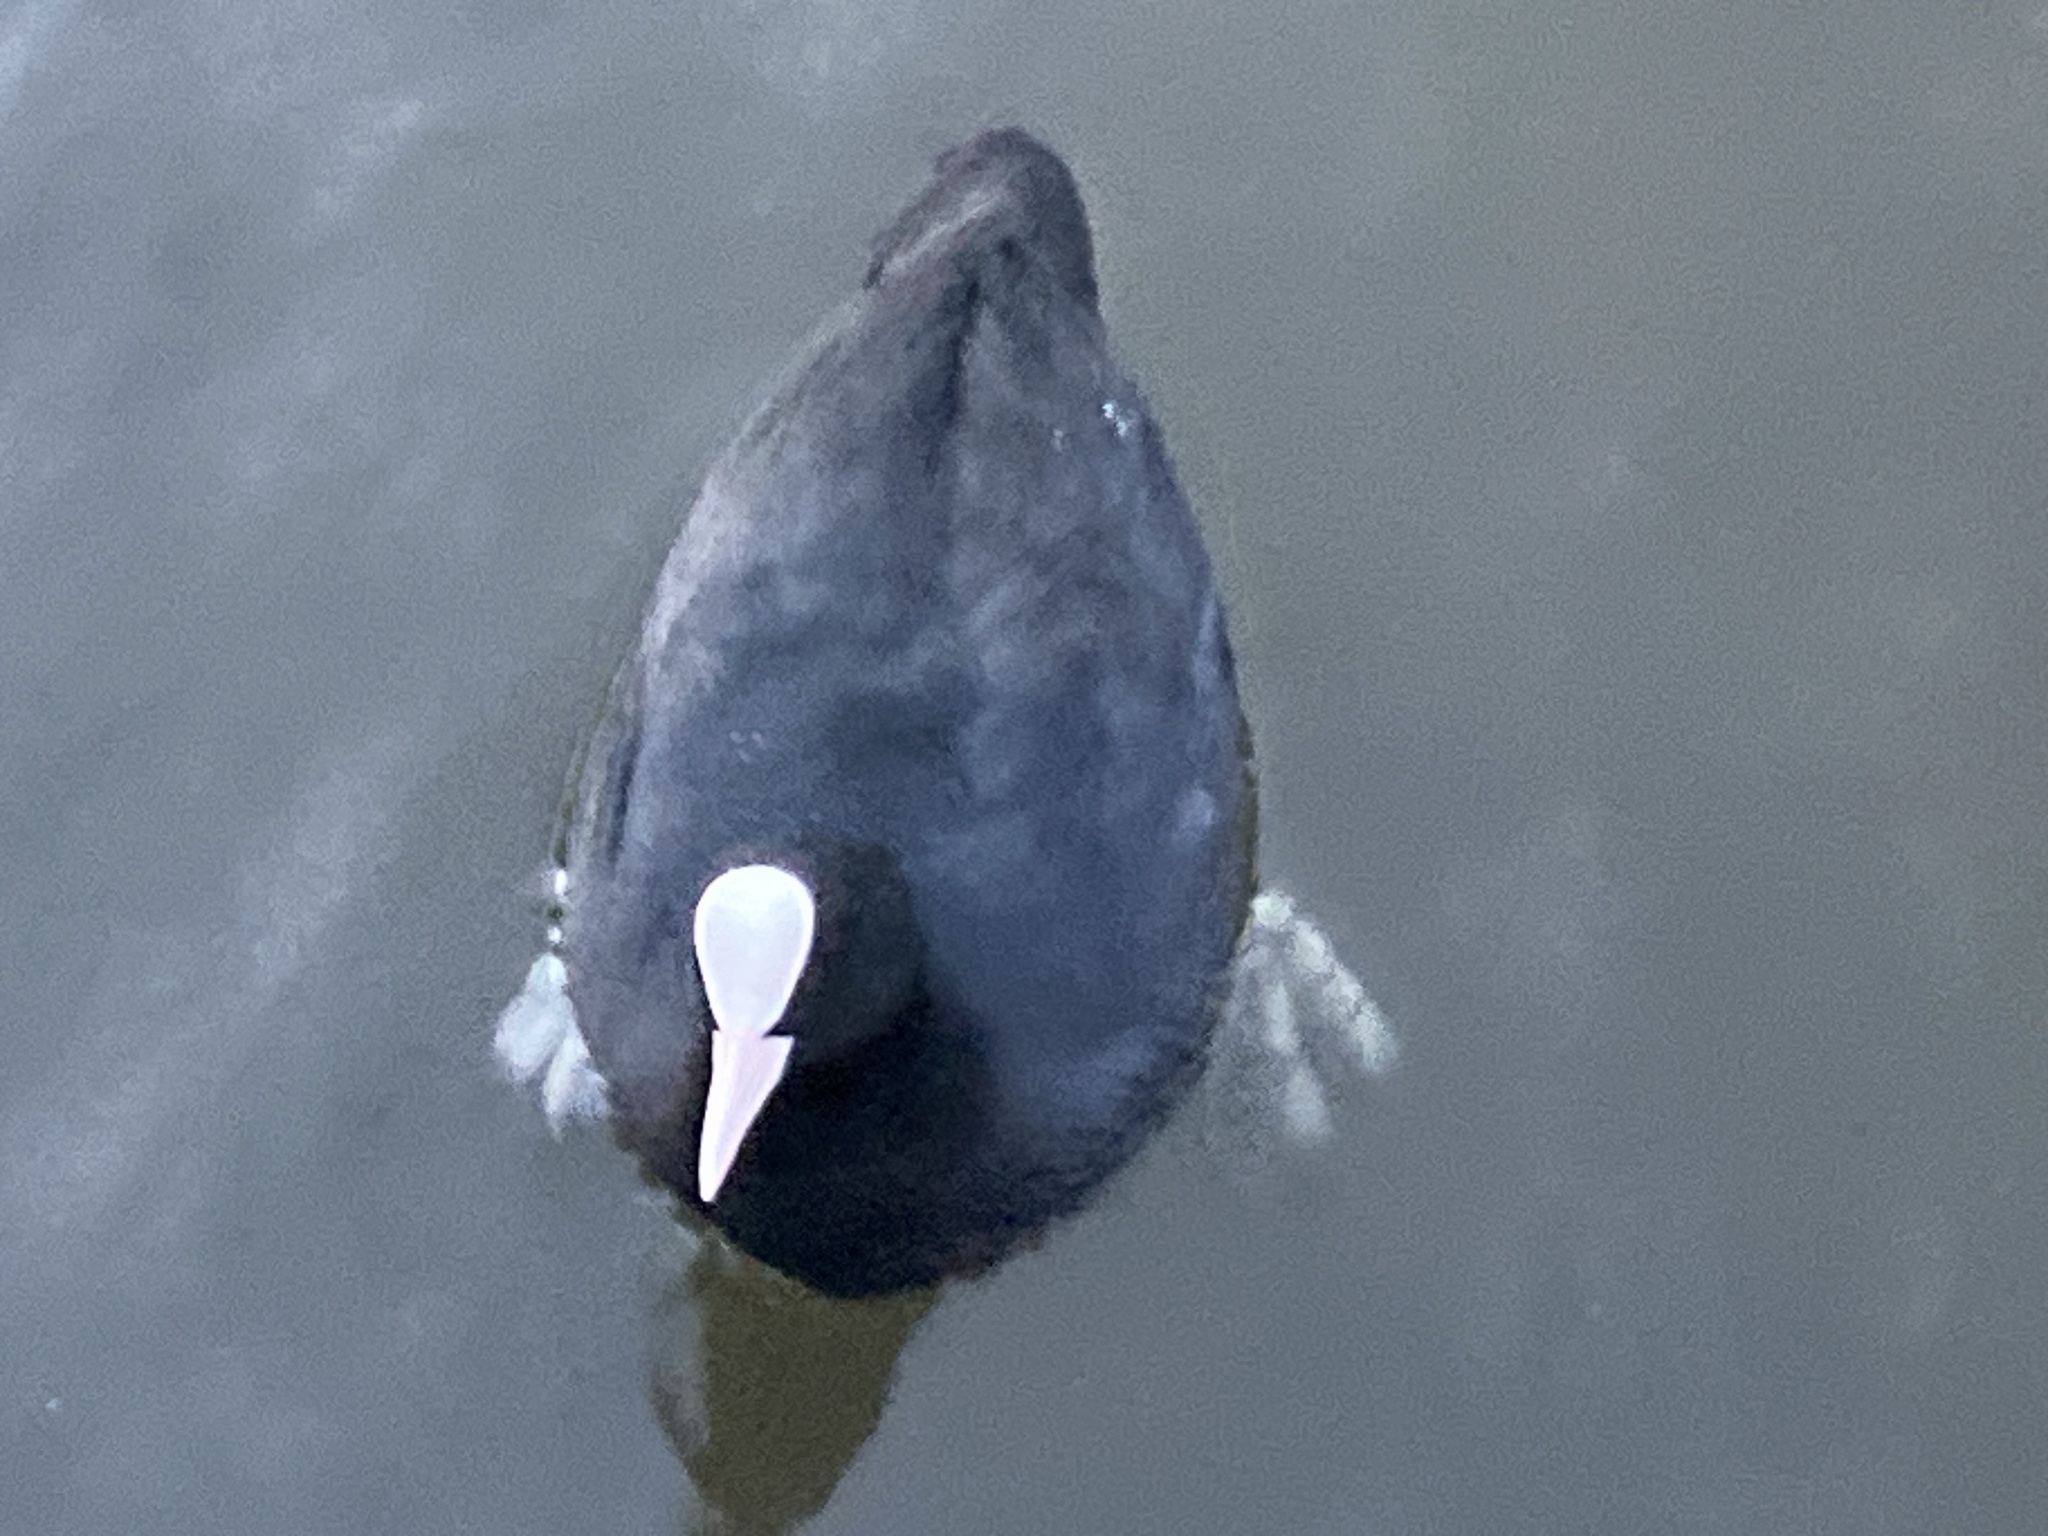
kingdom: Animalia
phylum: Chordata
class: Aves
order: Gruiformes
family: Rallidae
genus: Fulica
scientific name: Fulica atra
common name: Eurasian coot
